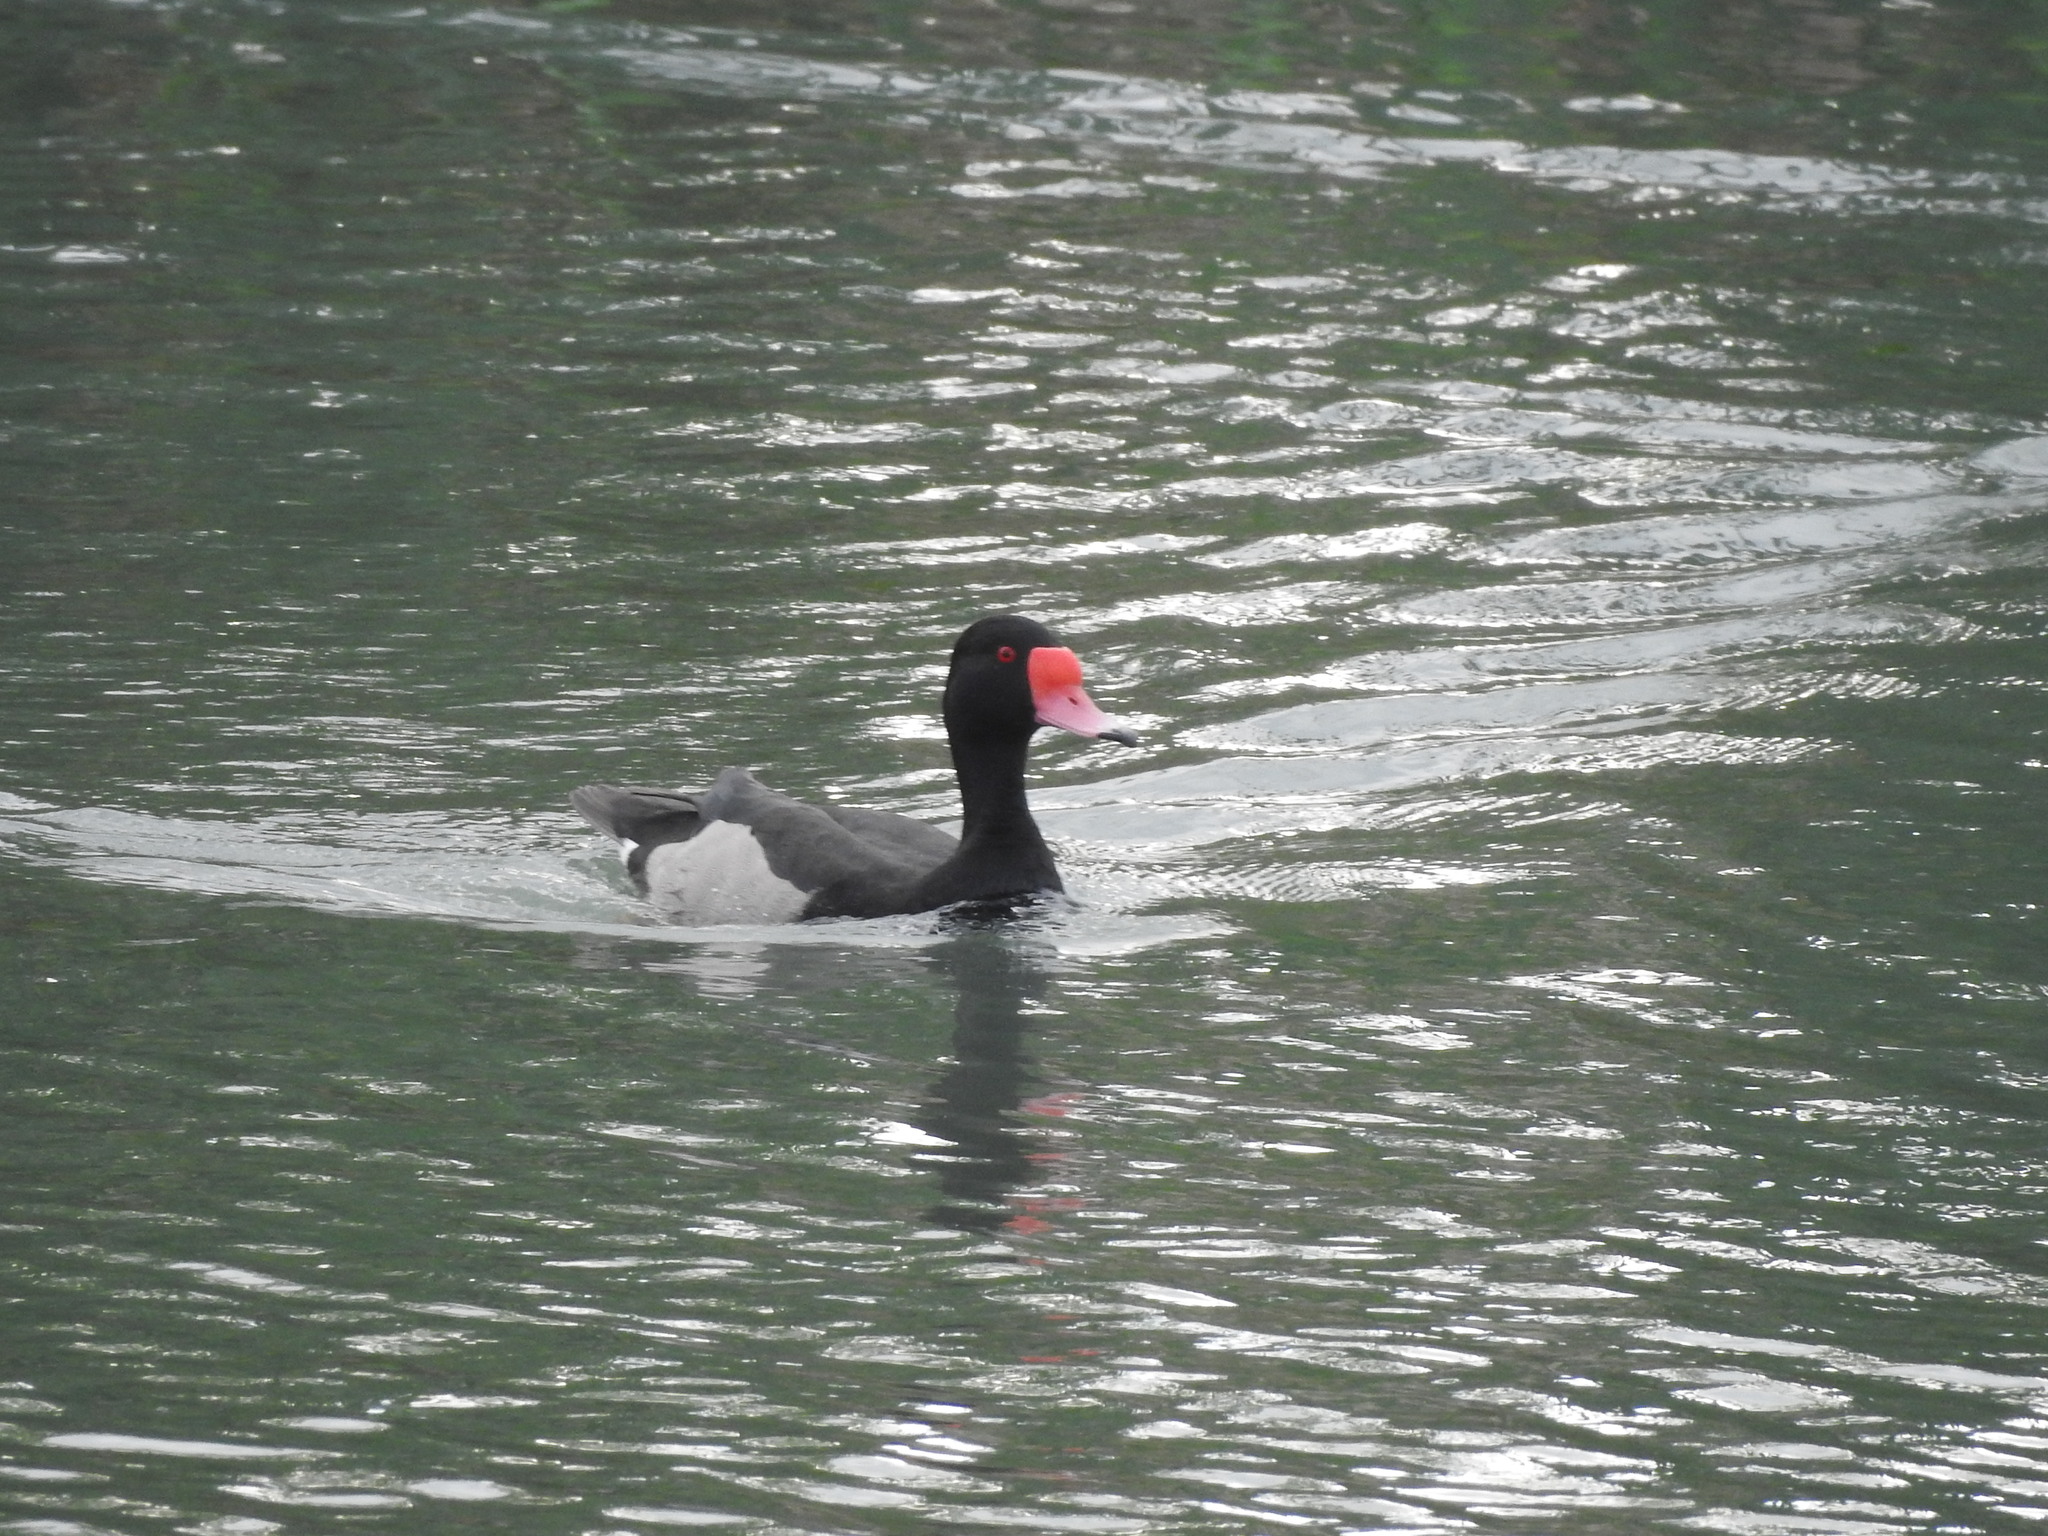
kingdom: Animalia
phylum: Chordata
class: Aves
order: Anseriformes
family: Anatidae
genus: Netta
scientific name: Netta peposaca
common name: Rosy-billed pochard
